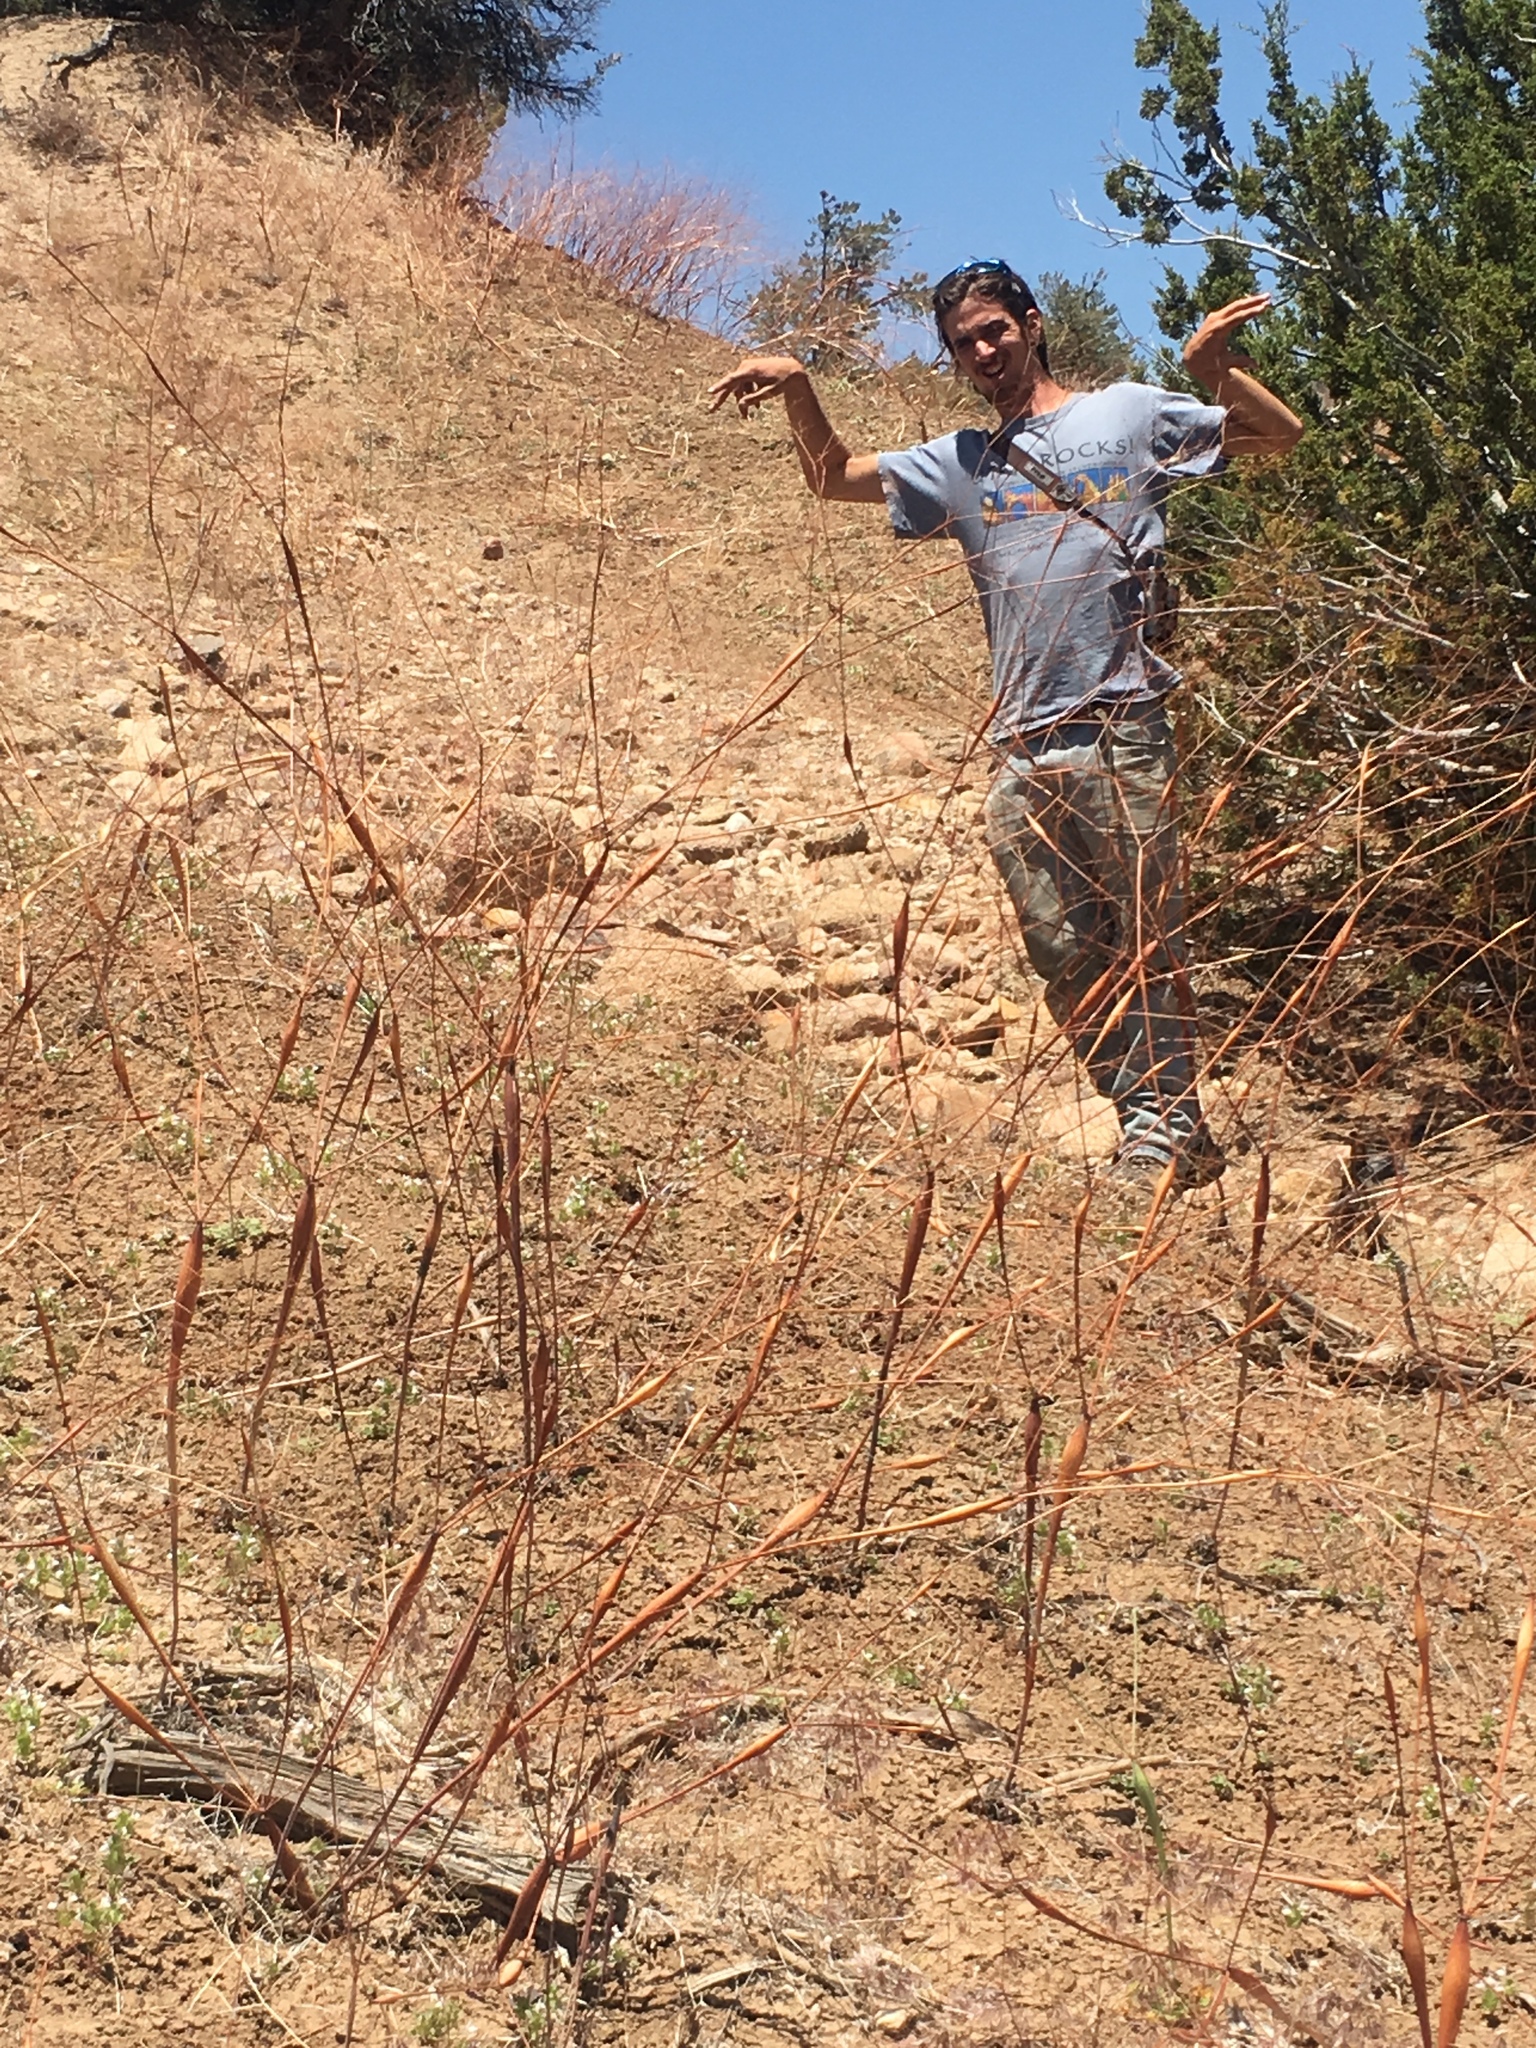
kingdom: Plantae
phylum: Tracheophyta
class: Magnoliopsida
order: Caryophyllales
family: Polygonaceae
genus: Eriogonum
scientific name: Eriogonum clavatum
